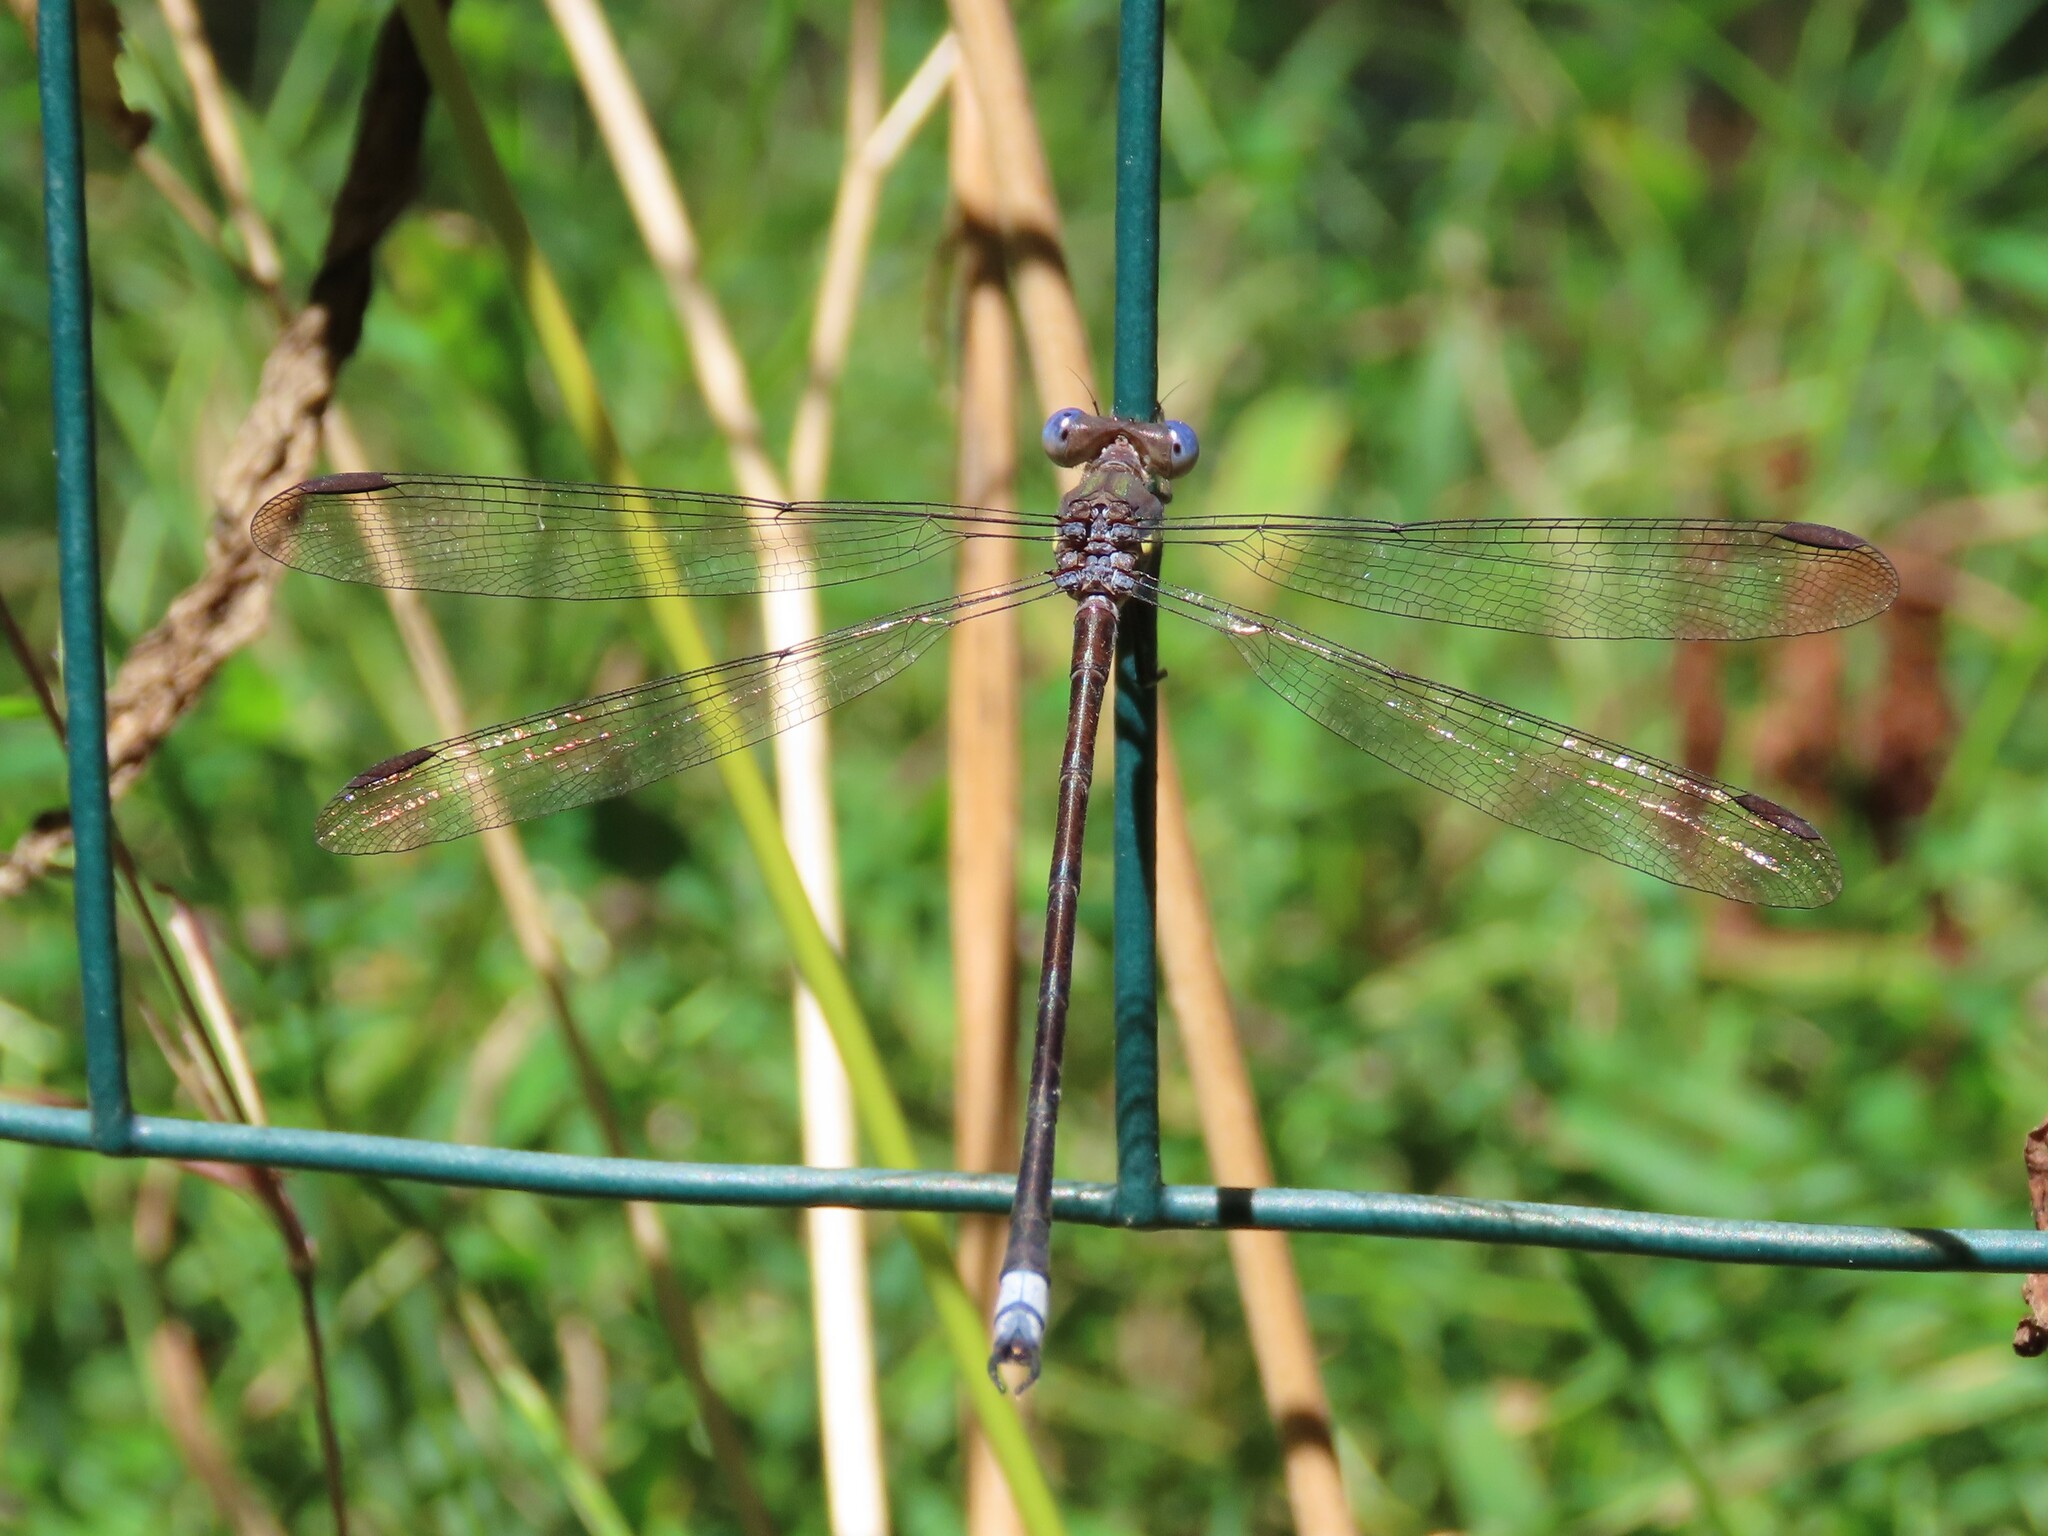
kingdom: Animalia
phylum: Arthropoda
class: Insecta
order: Odonata
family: Lestidae
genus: Archilestes
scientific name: Archilestes grandis
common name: Great spreadwing
